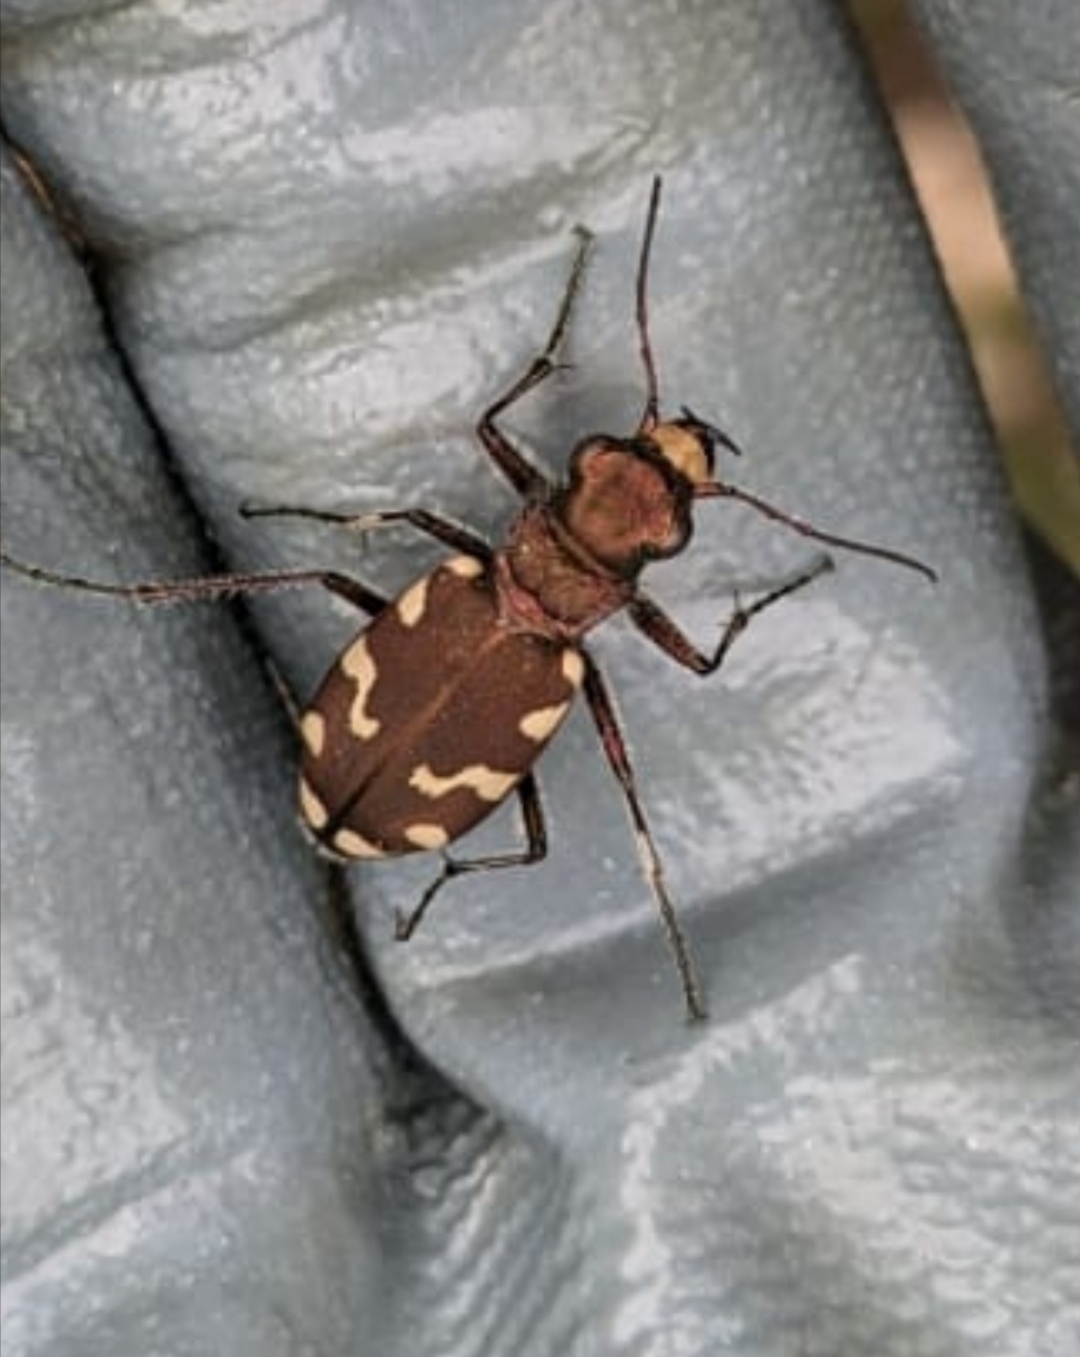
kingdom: Animalia
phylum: Arthropoda
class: Insecta
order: Coleoptera
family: Carabidae
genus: Cicindela
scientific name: Cicindela sylvicola
